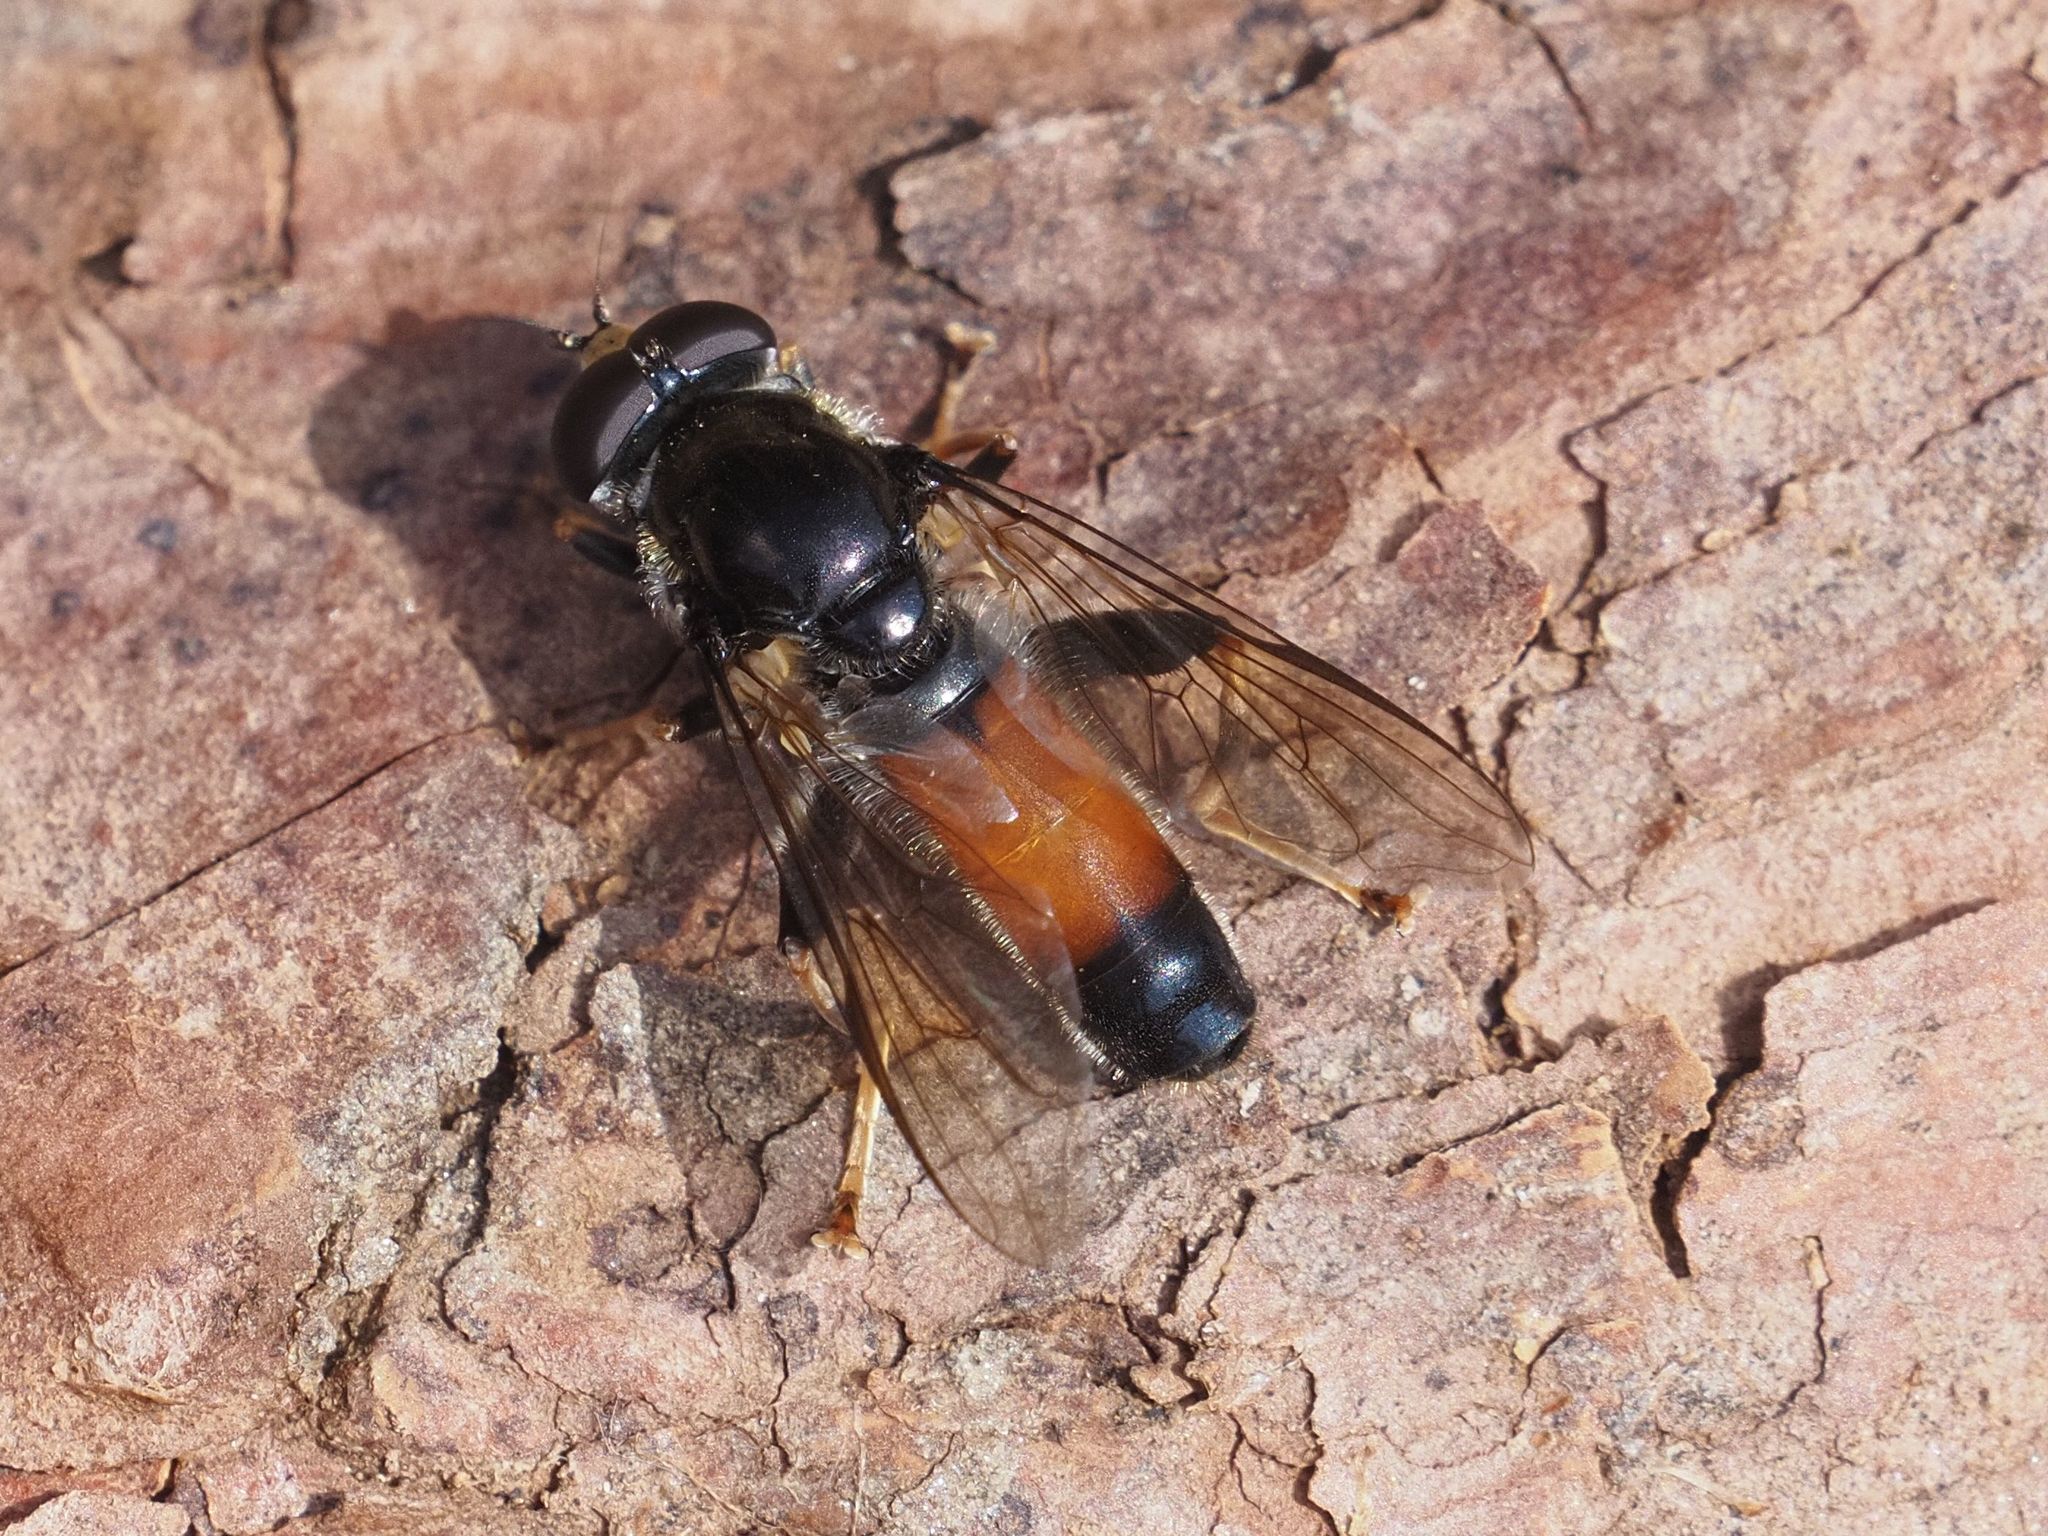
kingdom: Animalia
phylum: Arthropoda
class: Insecta
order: Diptera
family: Syrphidae
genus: Xylota
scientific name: Xylota ignava
